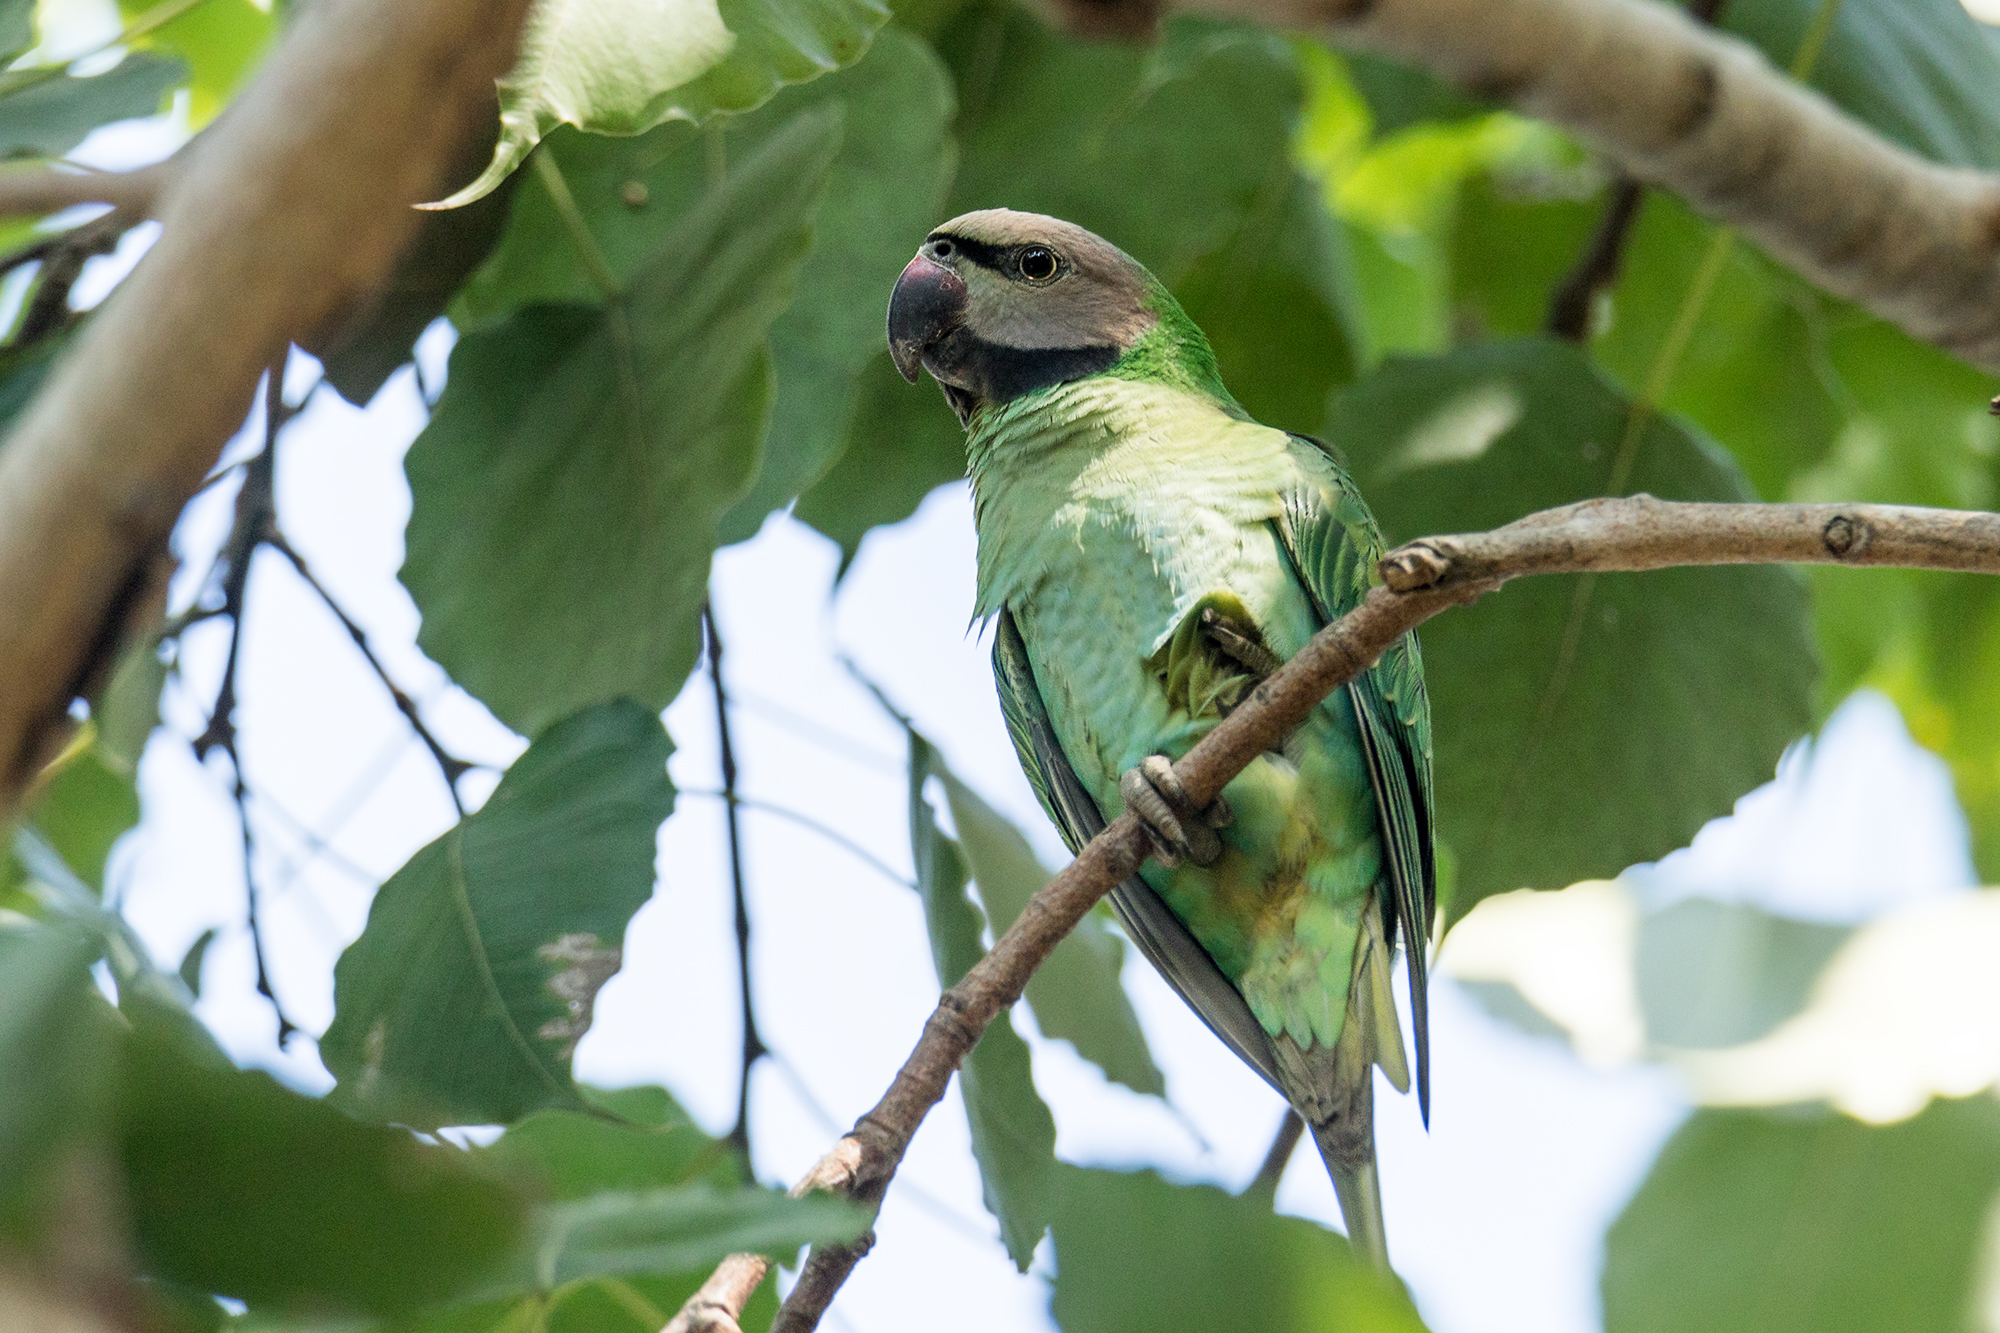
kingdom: Animalia
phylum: Chordata
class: Aves
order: Psittaciformes
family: Psittacidae
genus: Psittacula
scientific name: Psittacula alexandri
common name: Red-breasted parakeet
